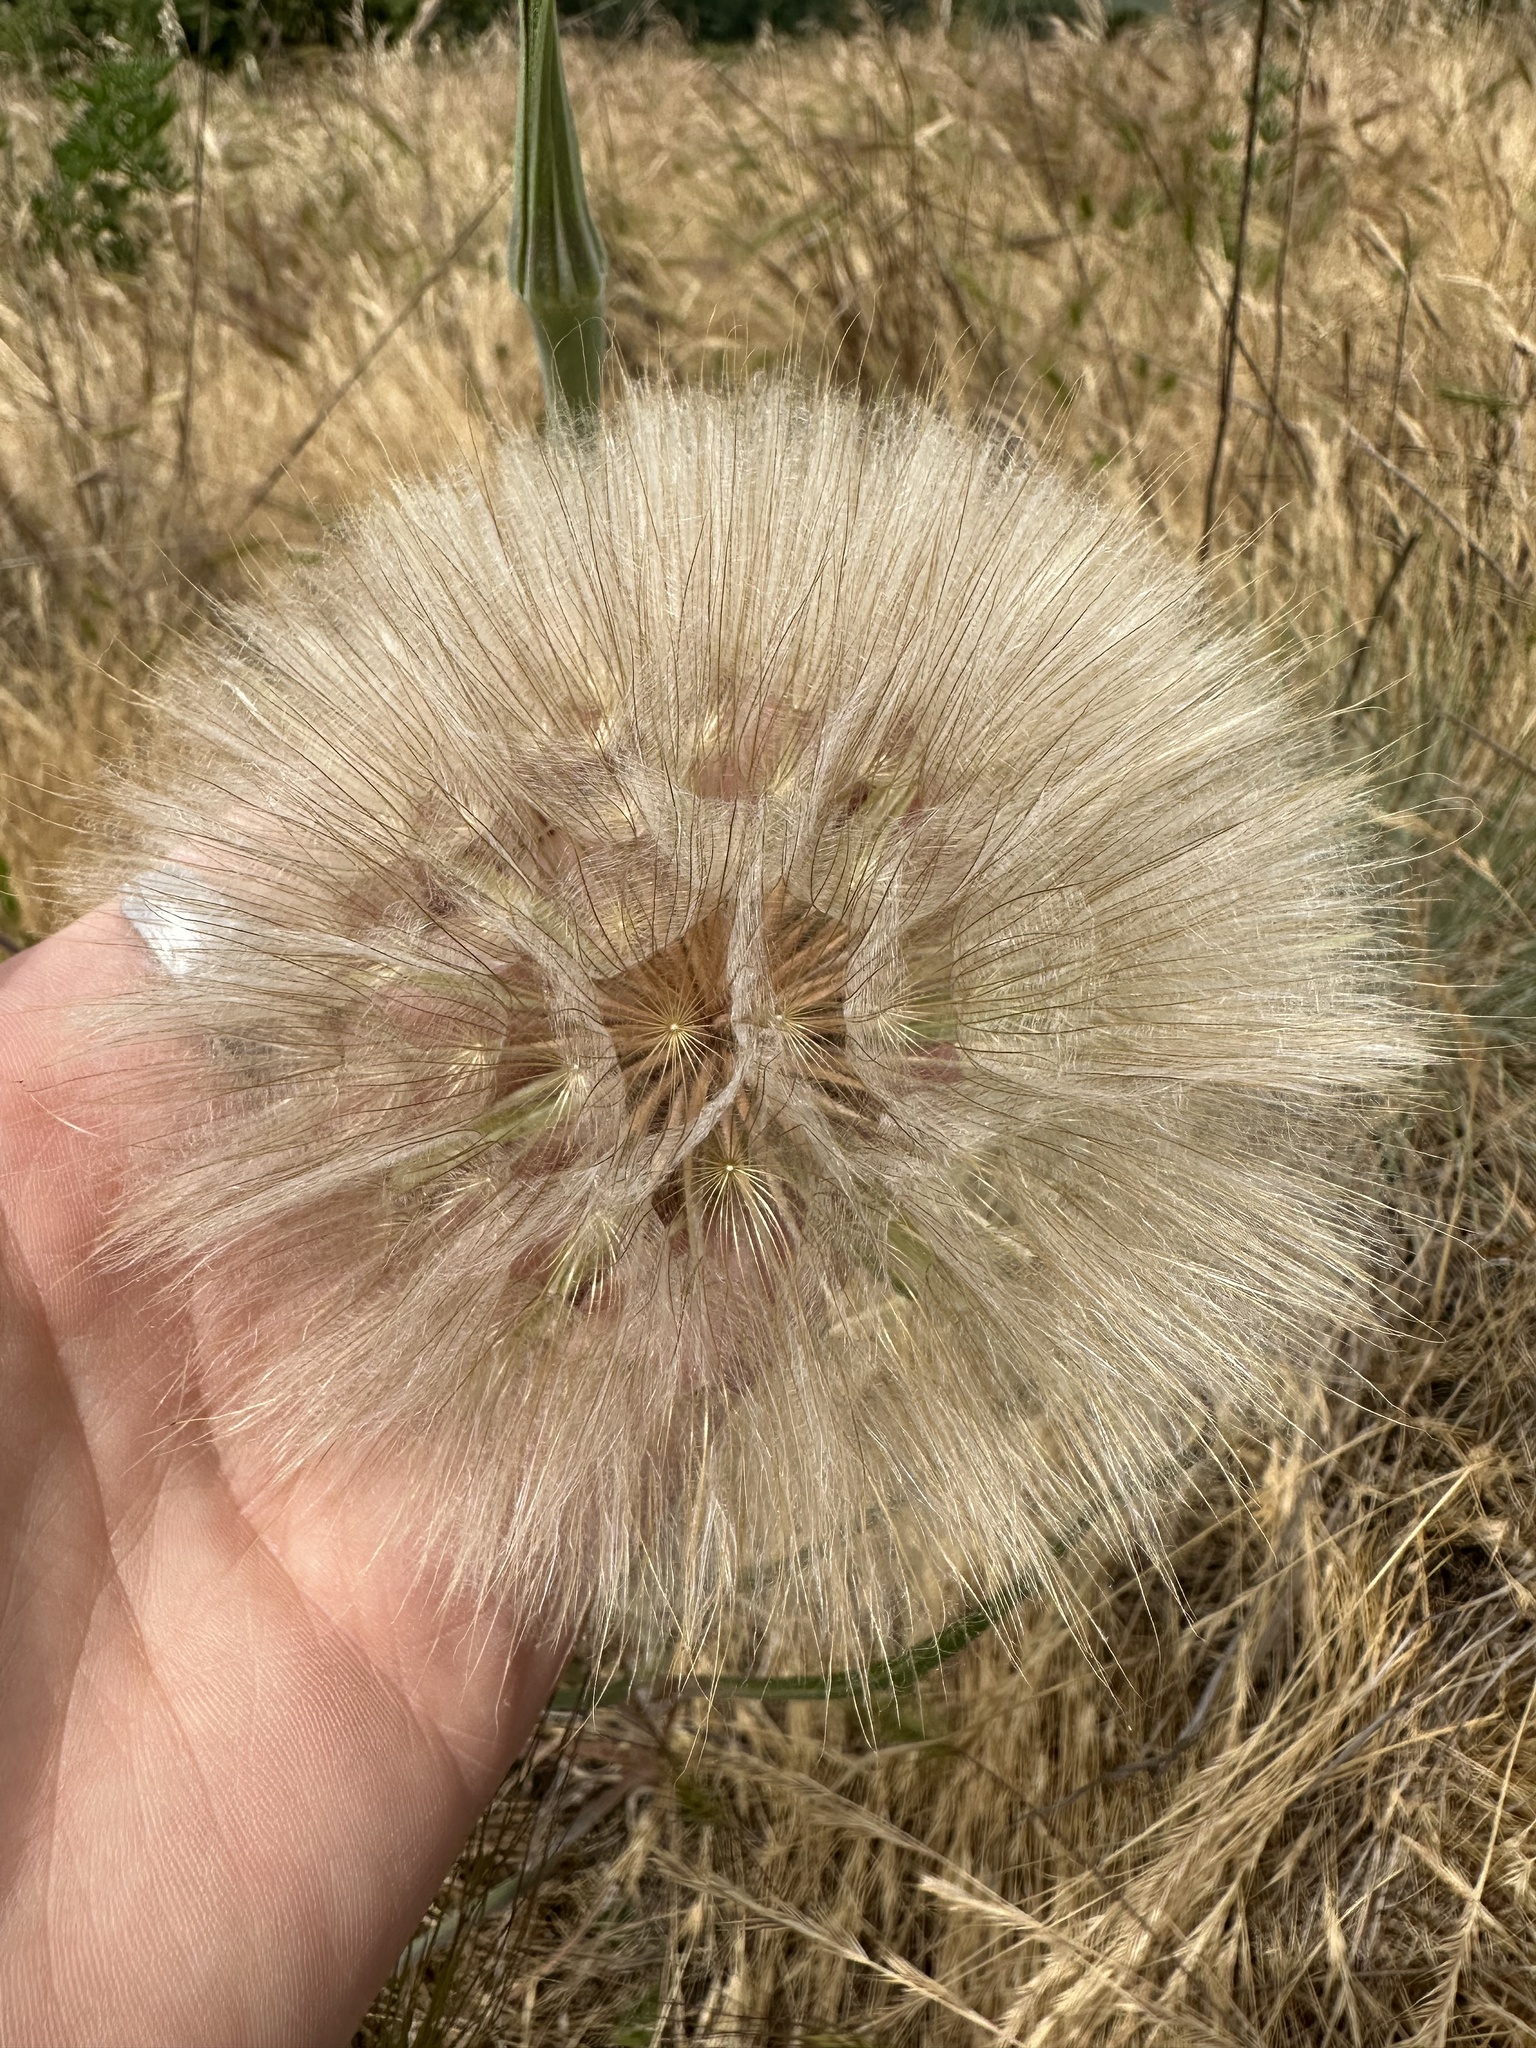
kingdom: Plantae
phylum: Tracheophyta
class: Magnoliopsida
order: Asterales
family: Asteraceae
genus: Tragopogon
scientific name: Tragopogon dubius
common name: Yellow salsify
